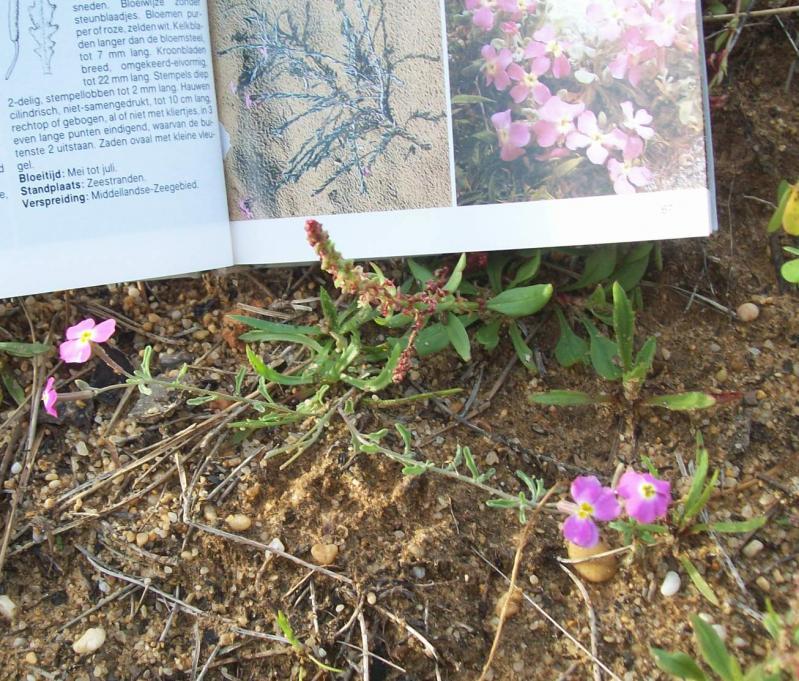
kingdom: Plantae
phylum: Tracheophyta
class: Magnoliopsida
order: Brassicales
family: Brassicaceae
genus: Marcuskochia
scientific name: Marcuskochia littorea
